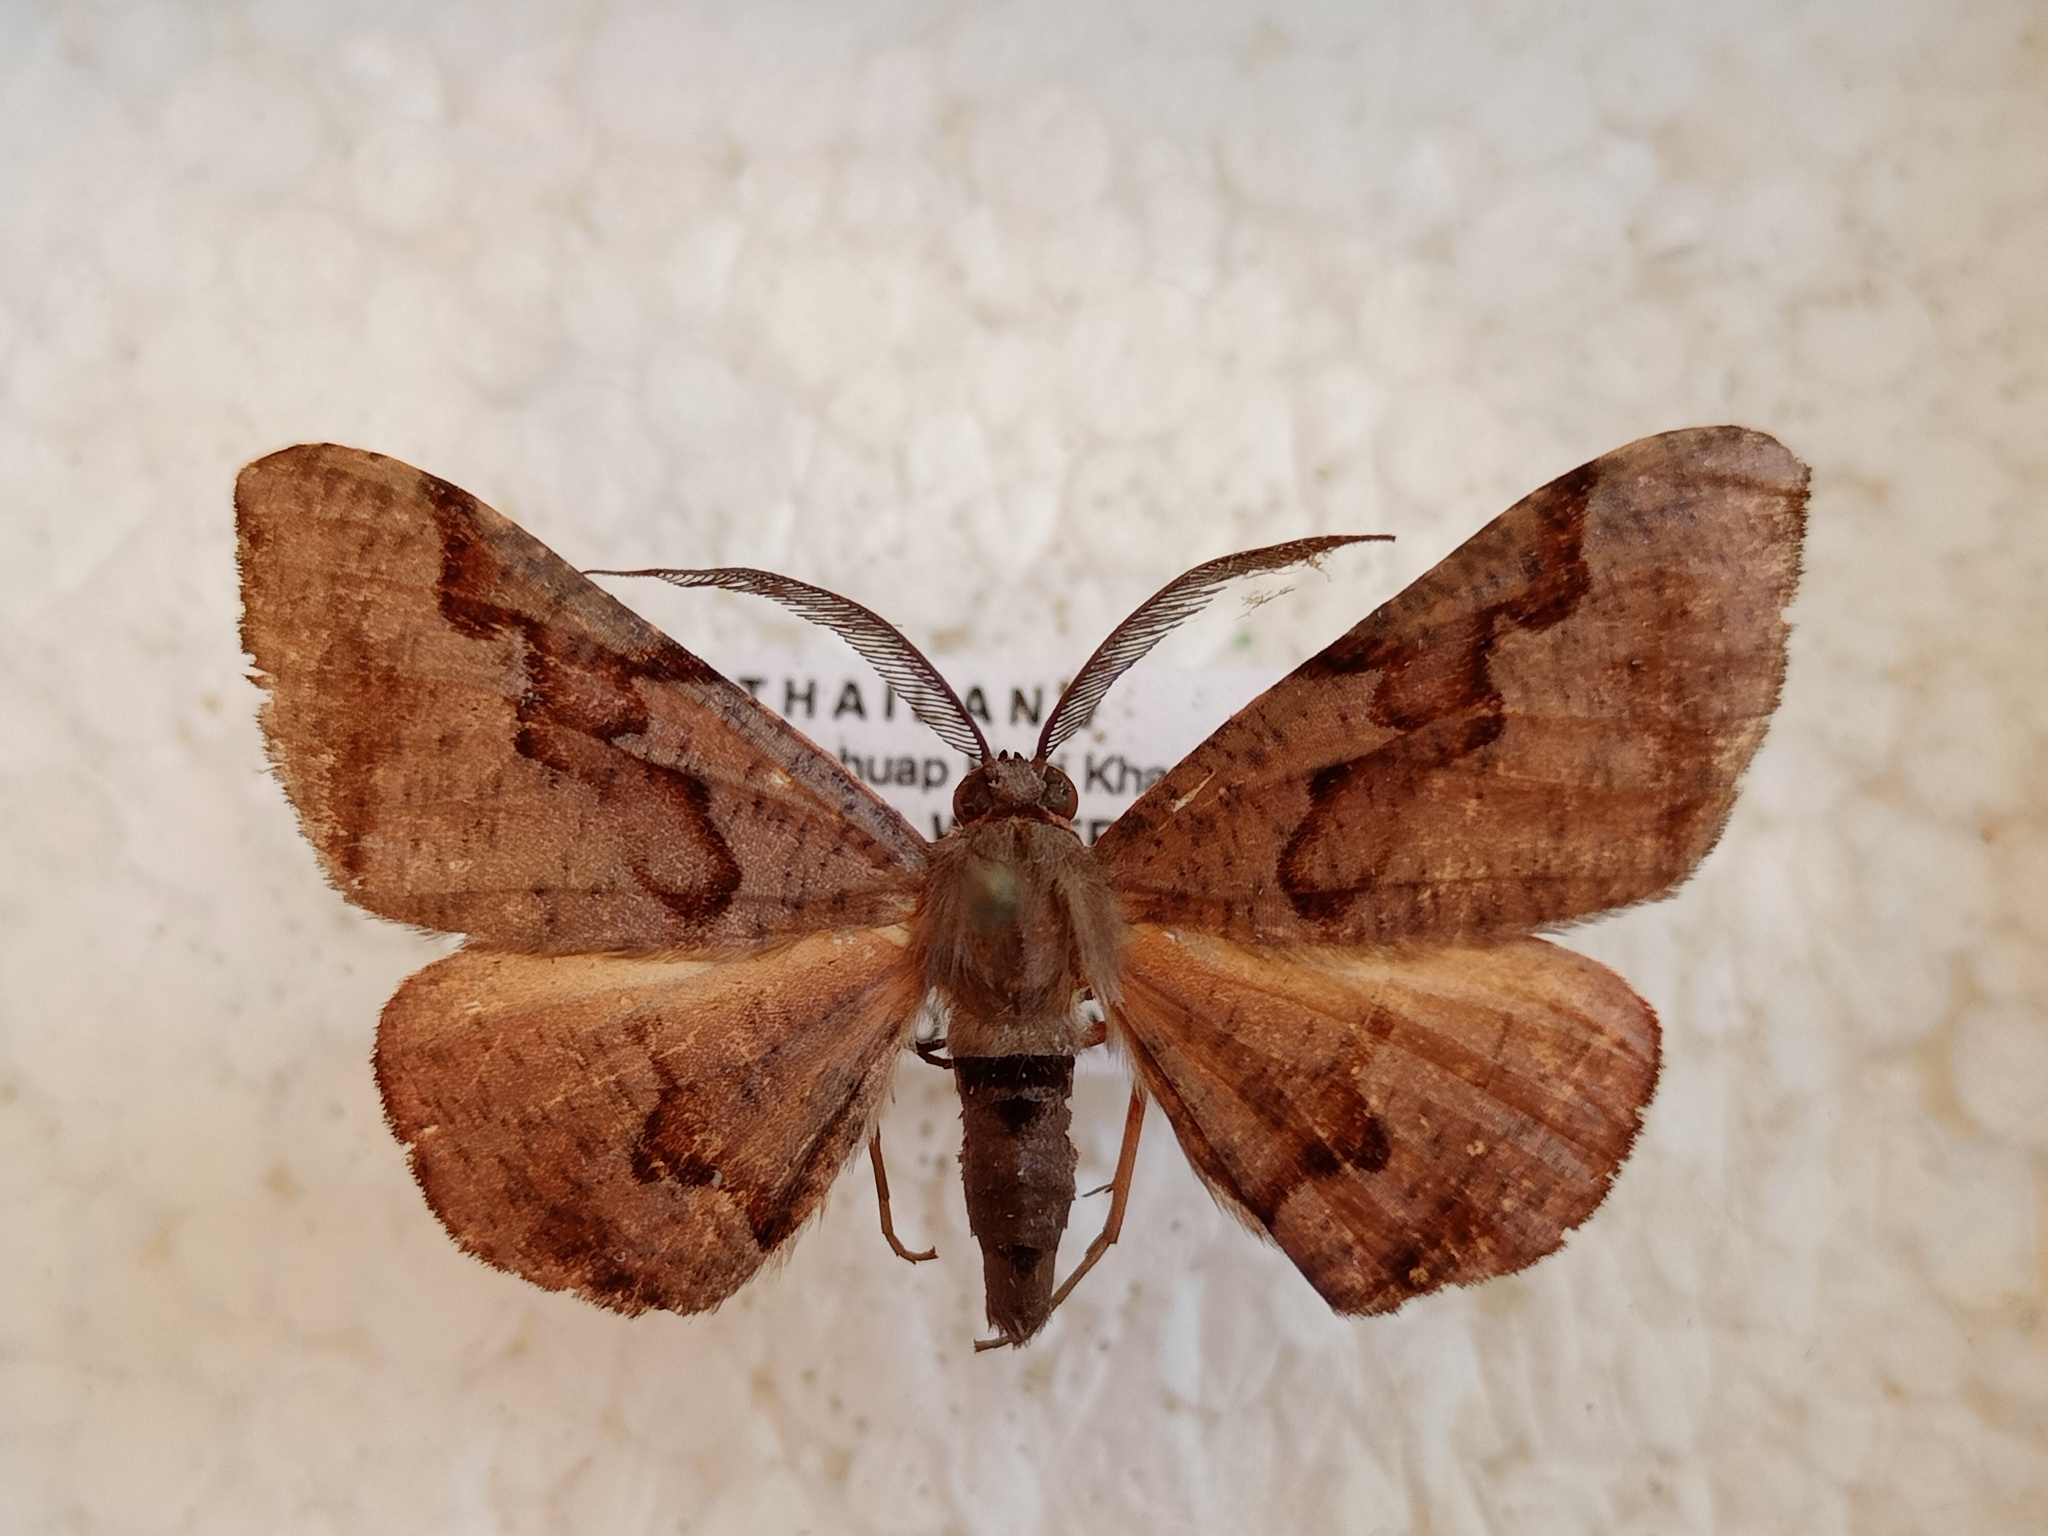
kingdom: Animalia
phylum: Arthropoda
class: Insecta
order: Lepidoptera
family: Geometridae
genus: Hypochrosis
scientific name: Hypochrosis baenzigeri
